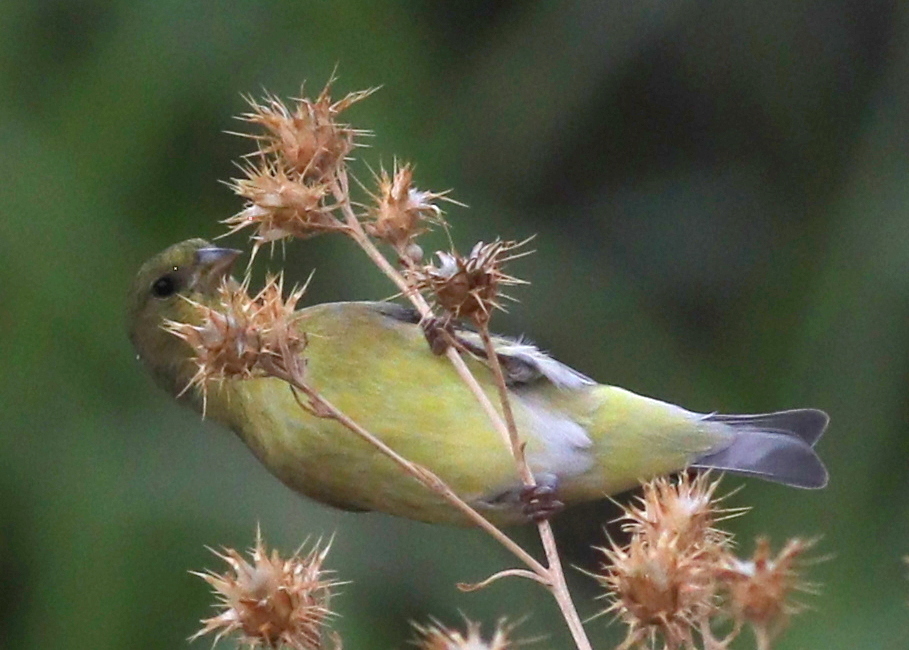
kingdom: Animalia
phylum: Chordata
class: Aves
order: Passeriformes
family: Fringillidae
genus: Spinus
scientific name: Spinus psaltria
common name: Lesser goldfinch
